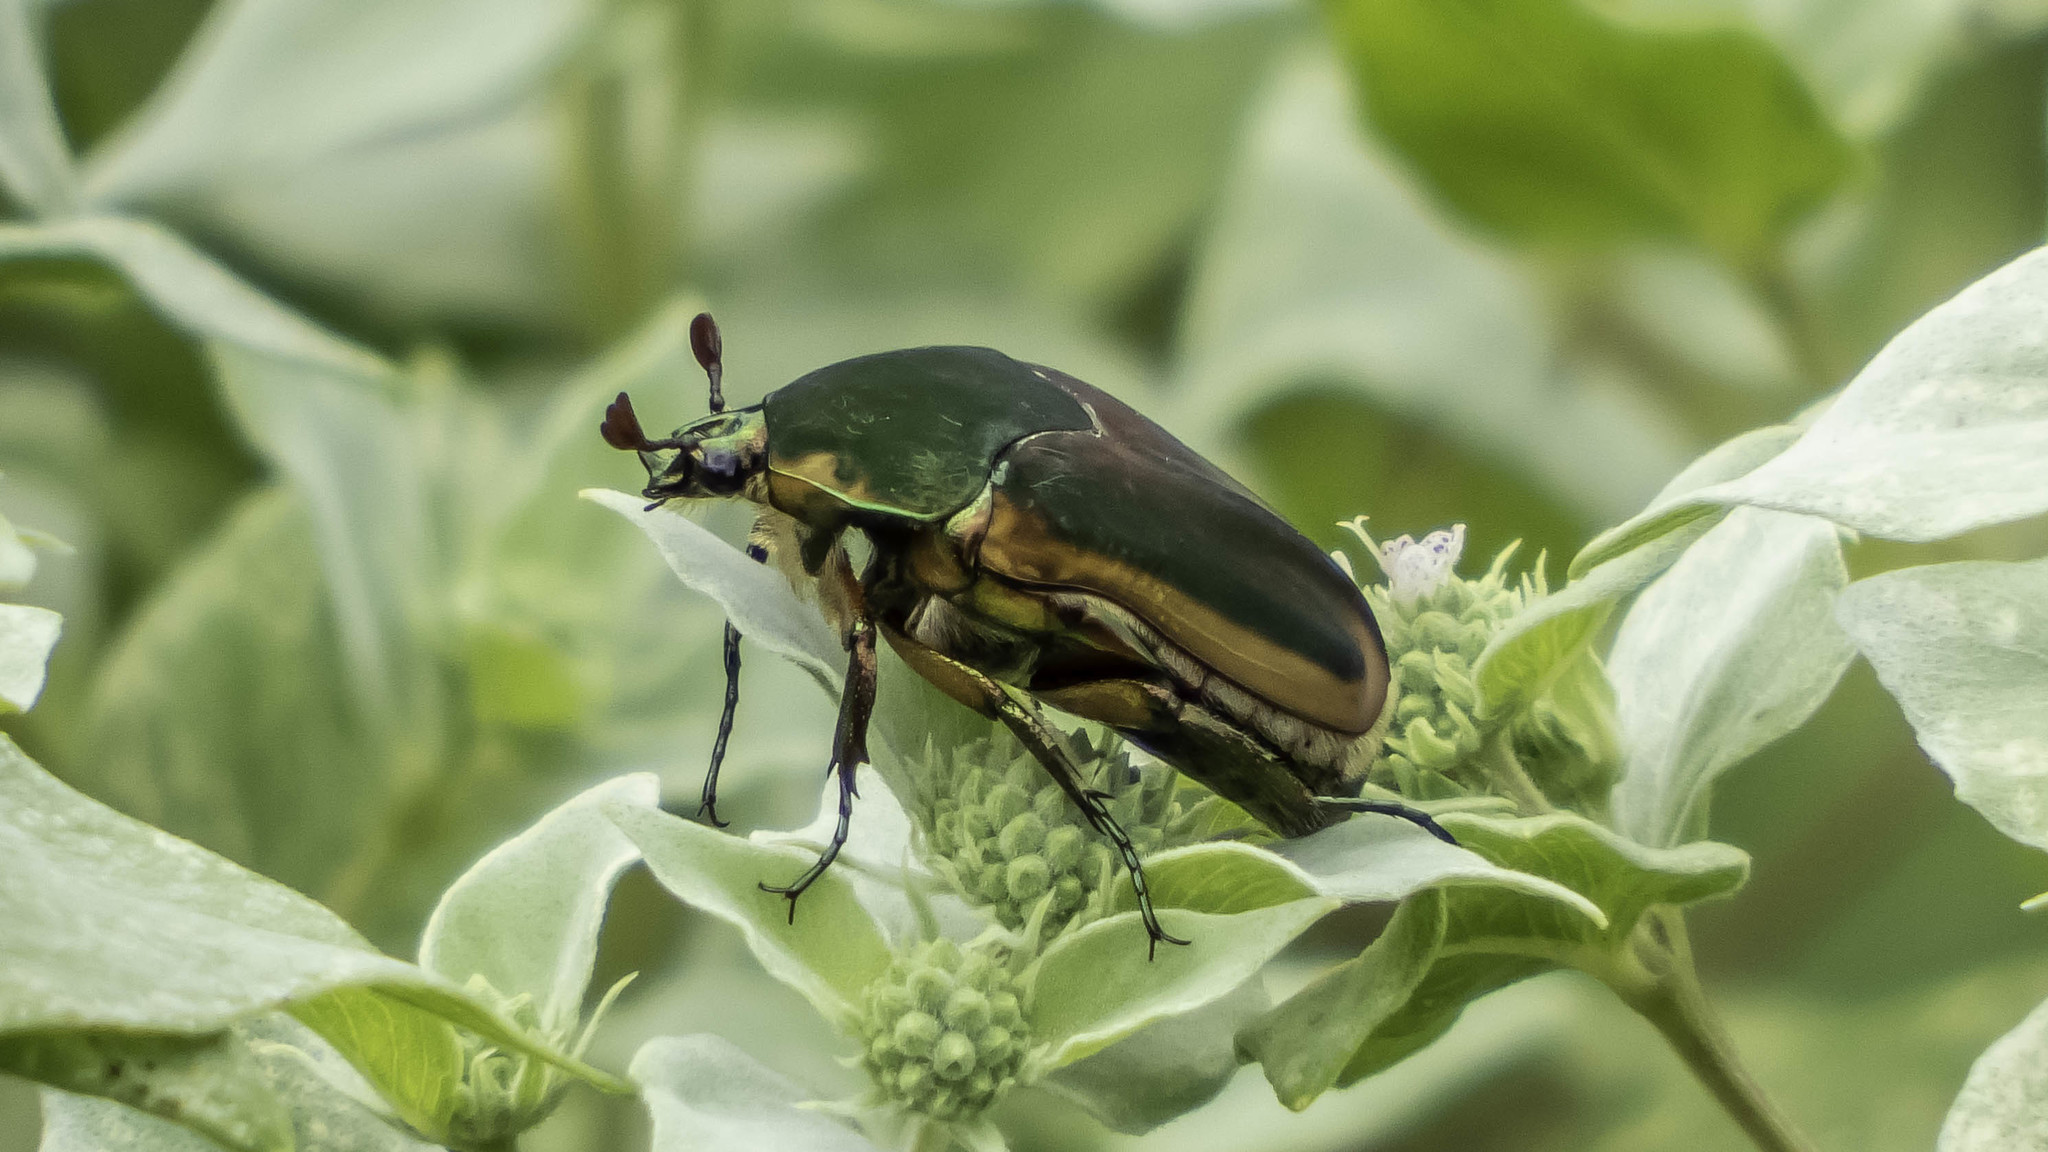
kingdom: Animalia
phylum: Arthropoda
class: Insecta
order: Coleoptera
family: Scarabaeidae
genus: Cotinis
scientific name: Cotinis nitida
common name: Common green june beetle
